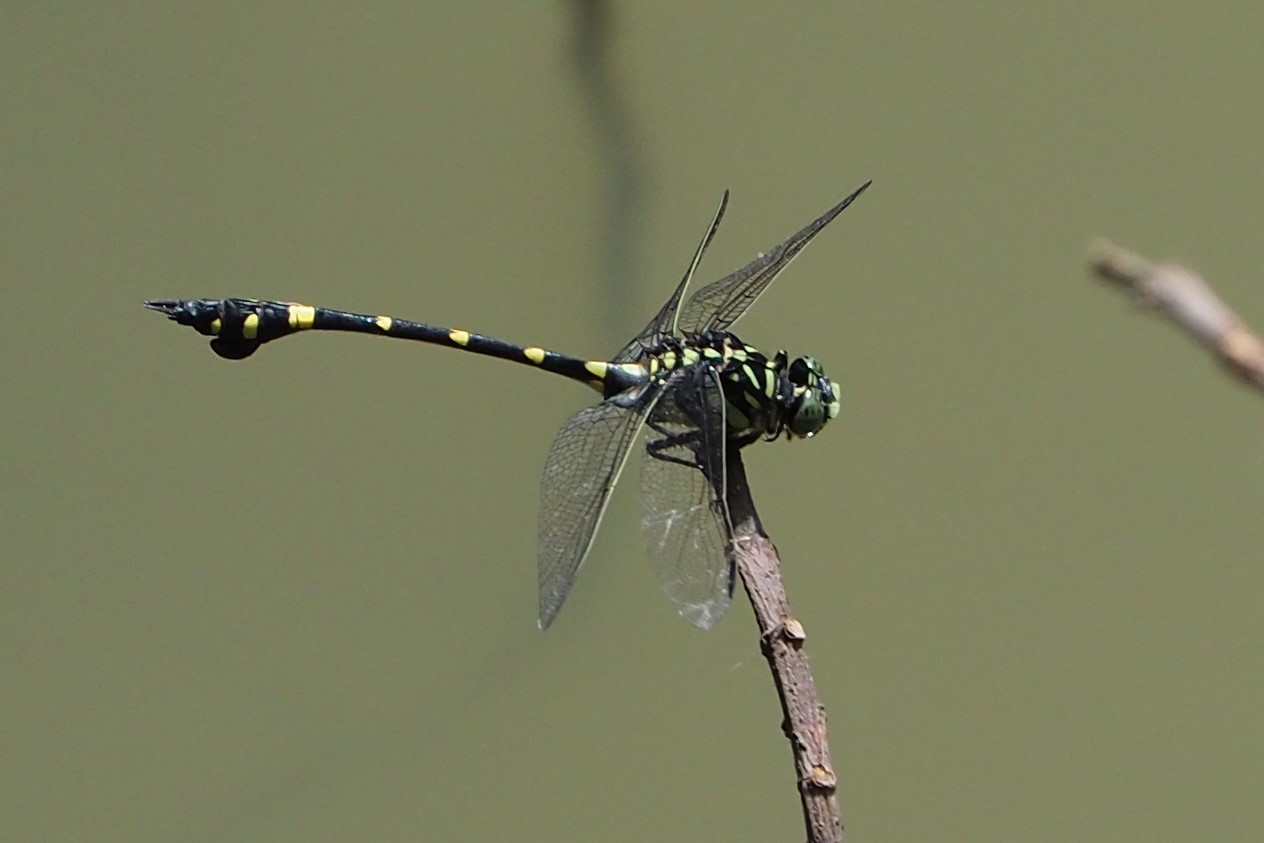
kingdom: Animalia
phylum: Arthropoda
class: Insecta
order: Odonata
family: Gomphidae
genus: Ictinogomphus
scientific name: Ictinogomphus rapax
